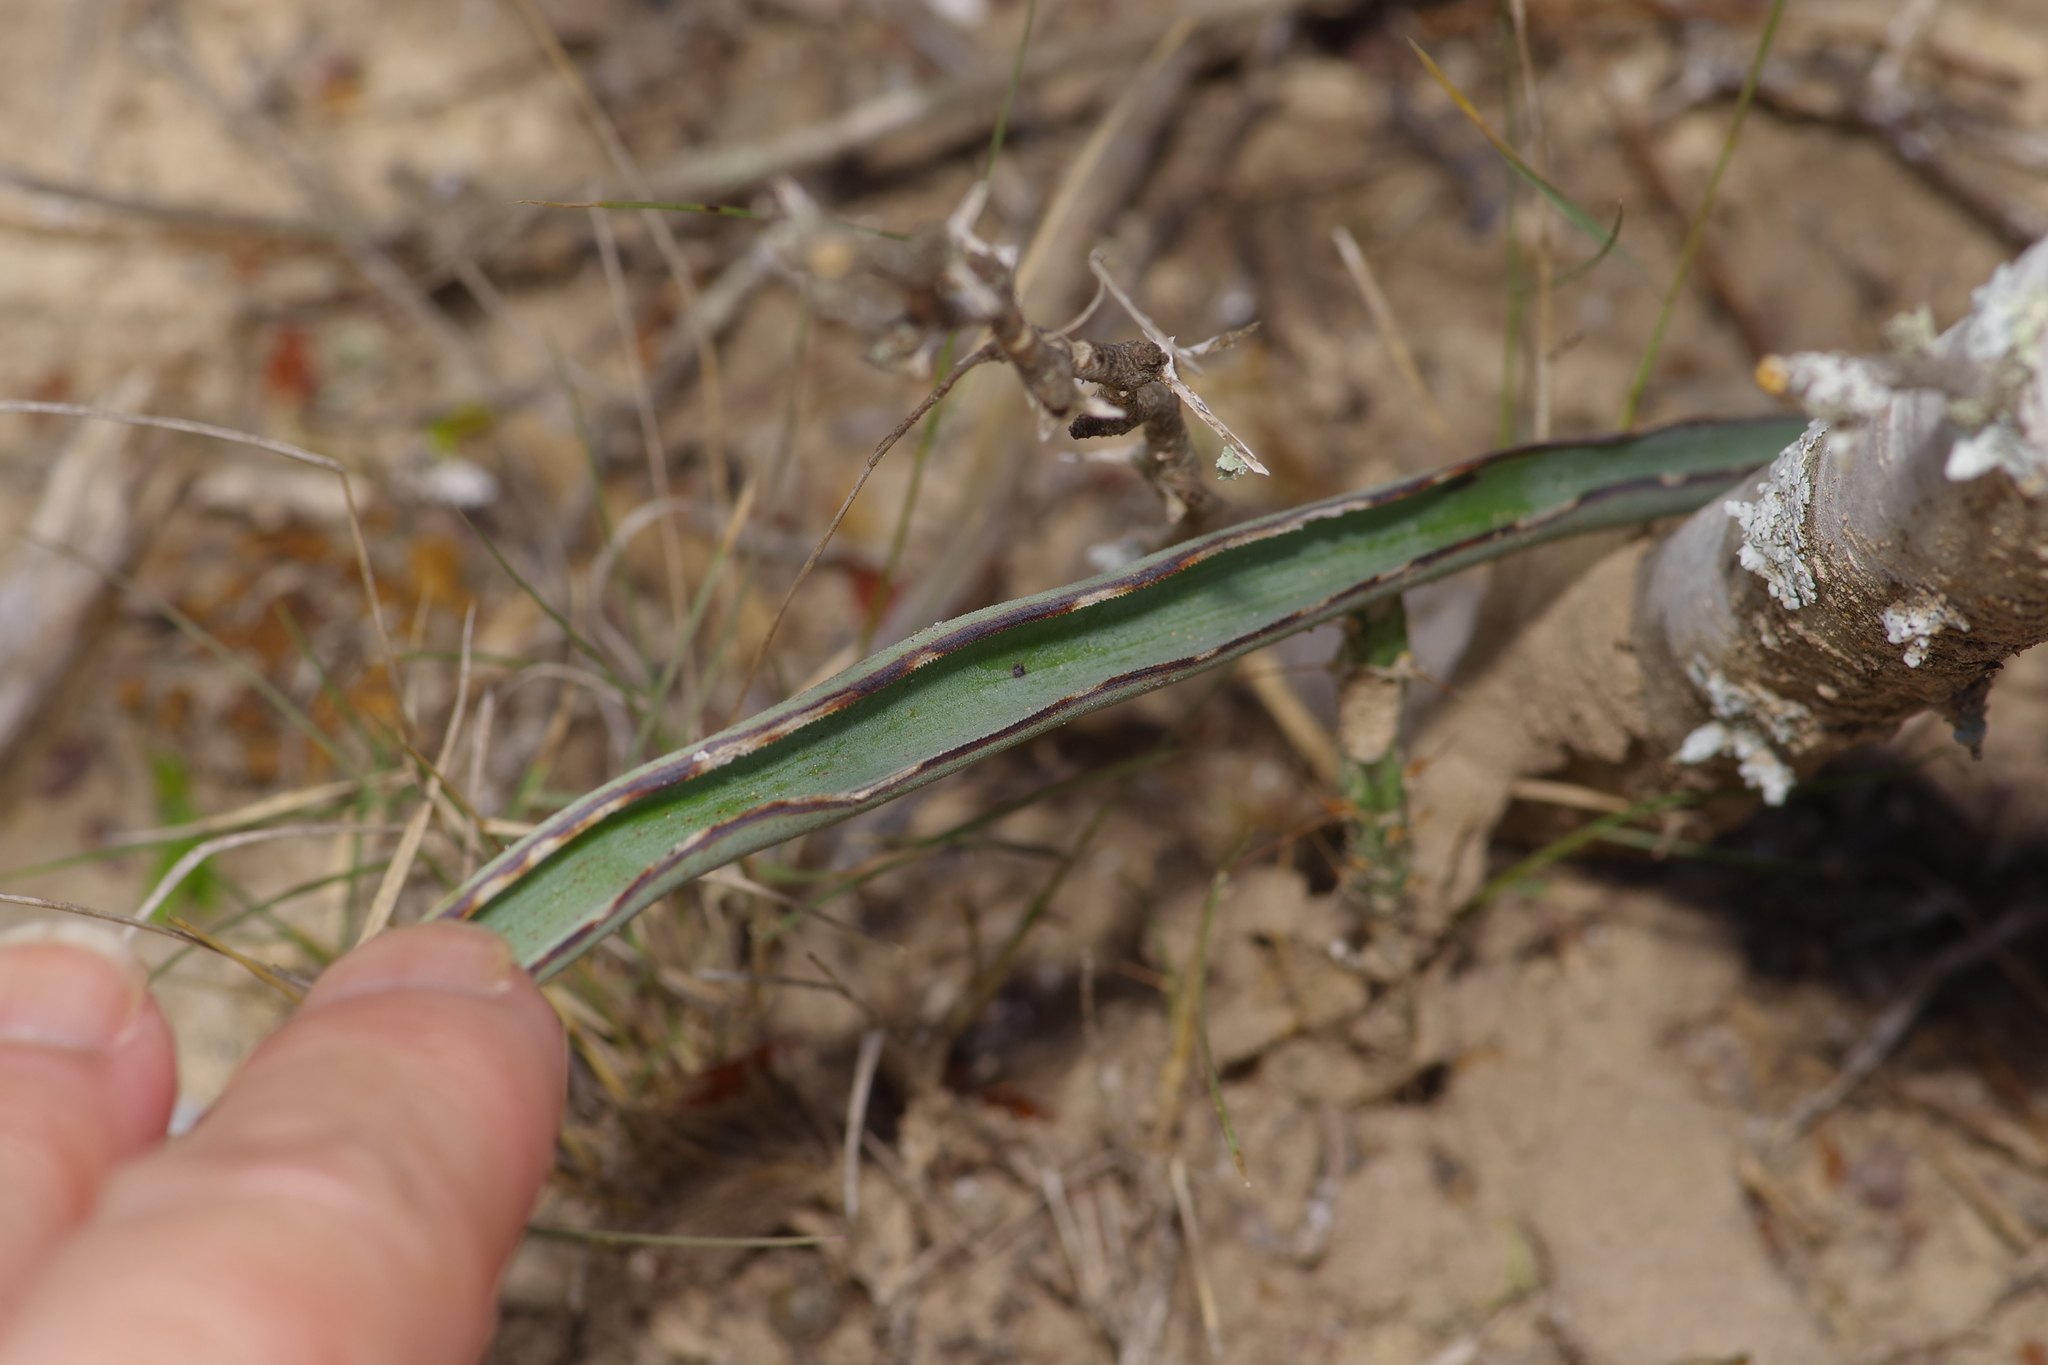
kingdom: Plantae
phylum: Tracheophyta
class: Liliopsida
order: Asparagales
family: Asparagaceae
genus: Yucca
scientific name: Yucca treculiana
